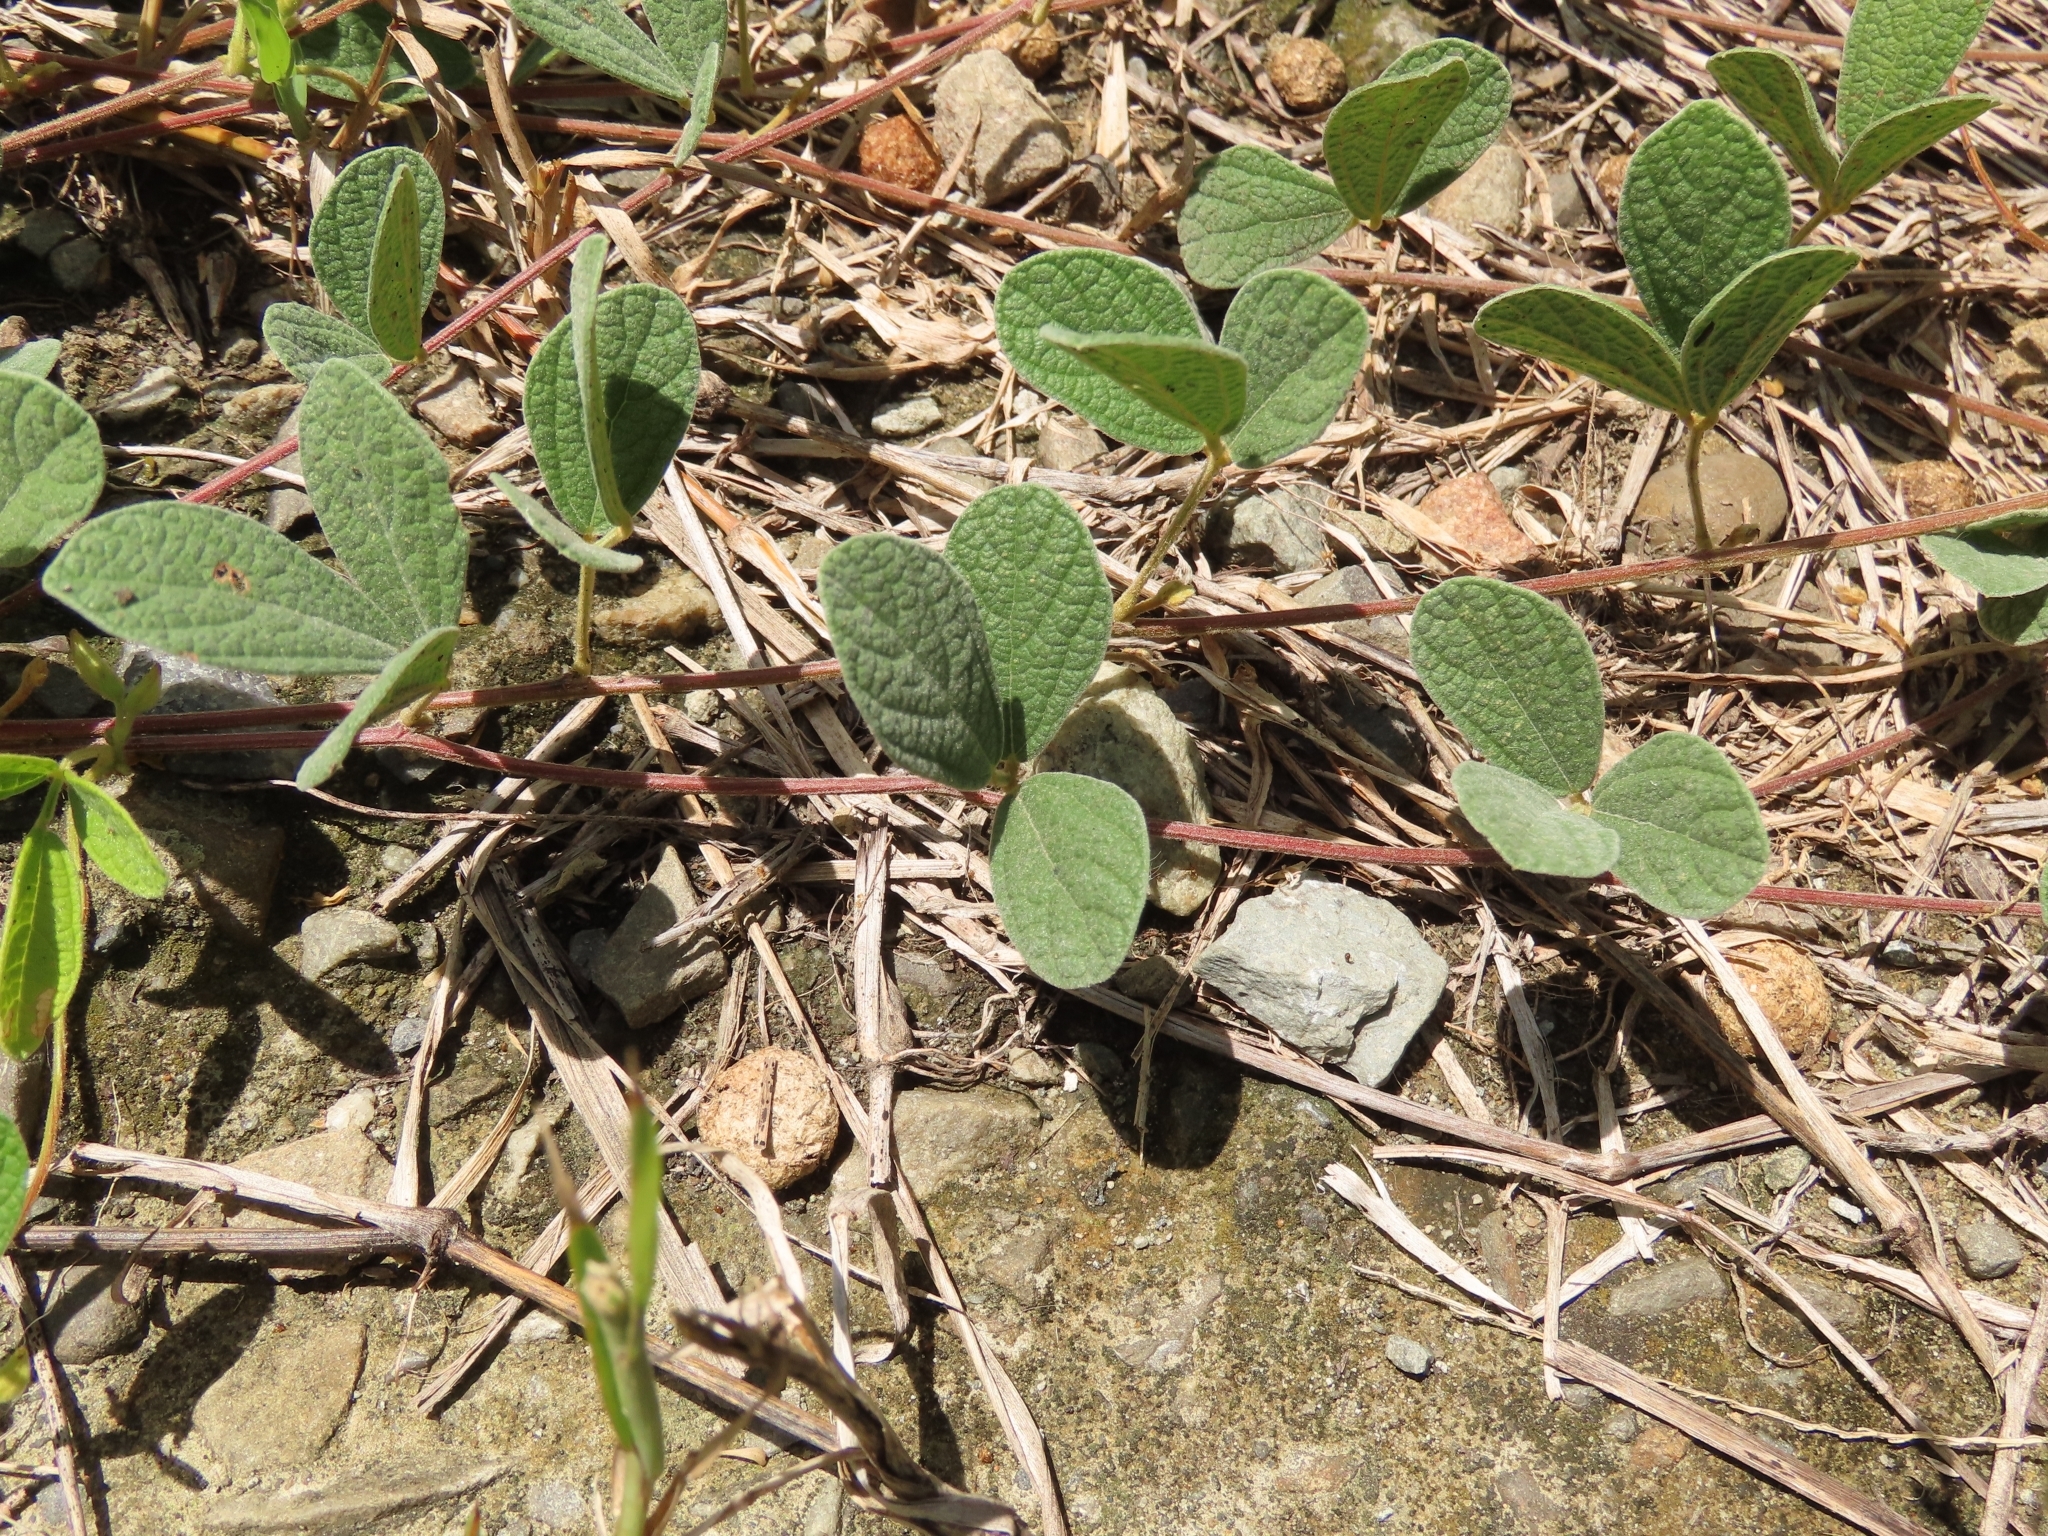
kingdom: Plantae
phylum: Tracheophyta
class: Magnoliopsida
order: Fabales
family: Fabaceae
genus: Cajanus
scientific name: Cajanus scarabaeoides
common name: Showy pigeonpea
